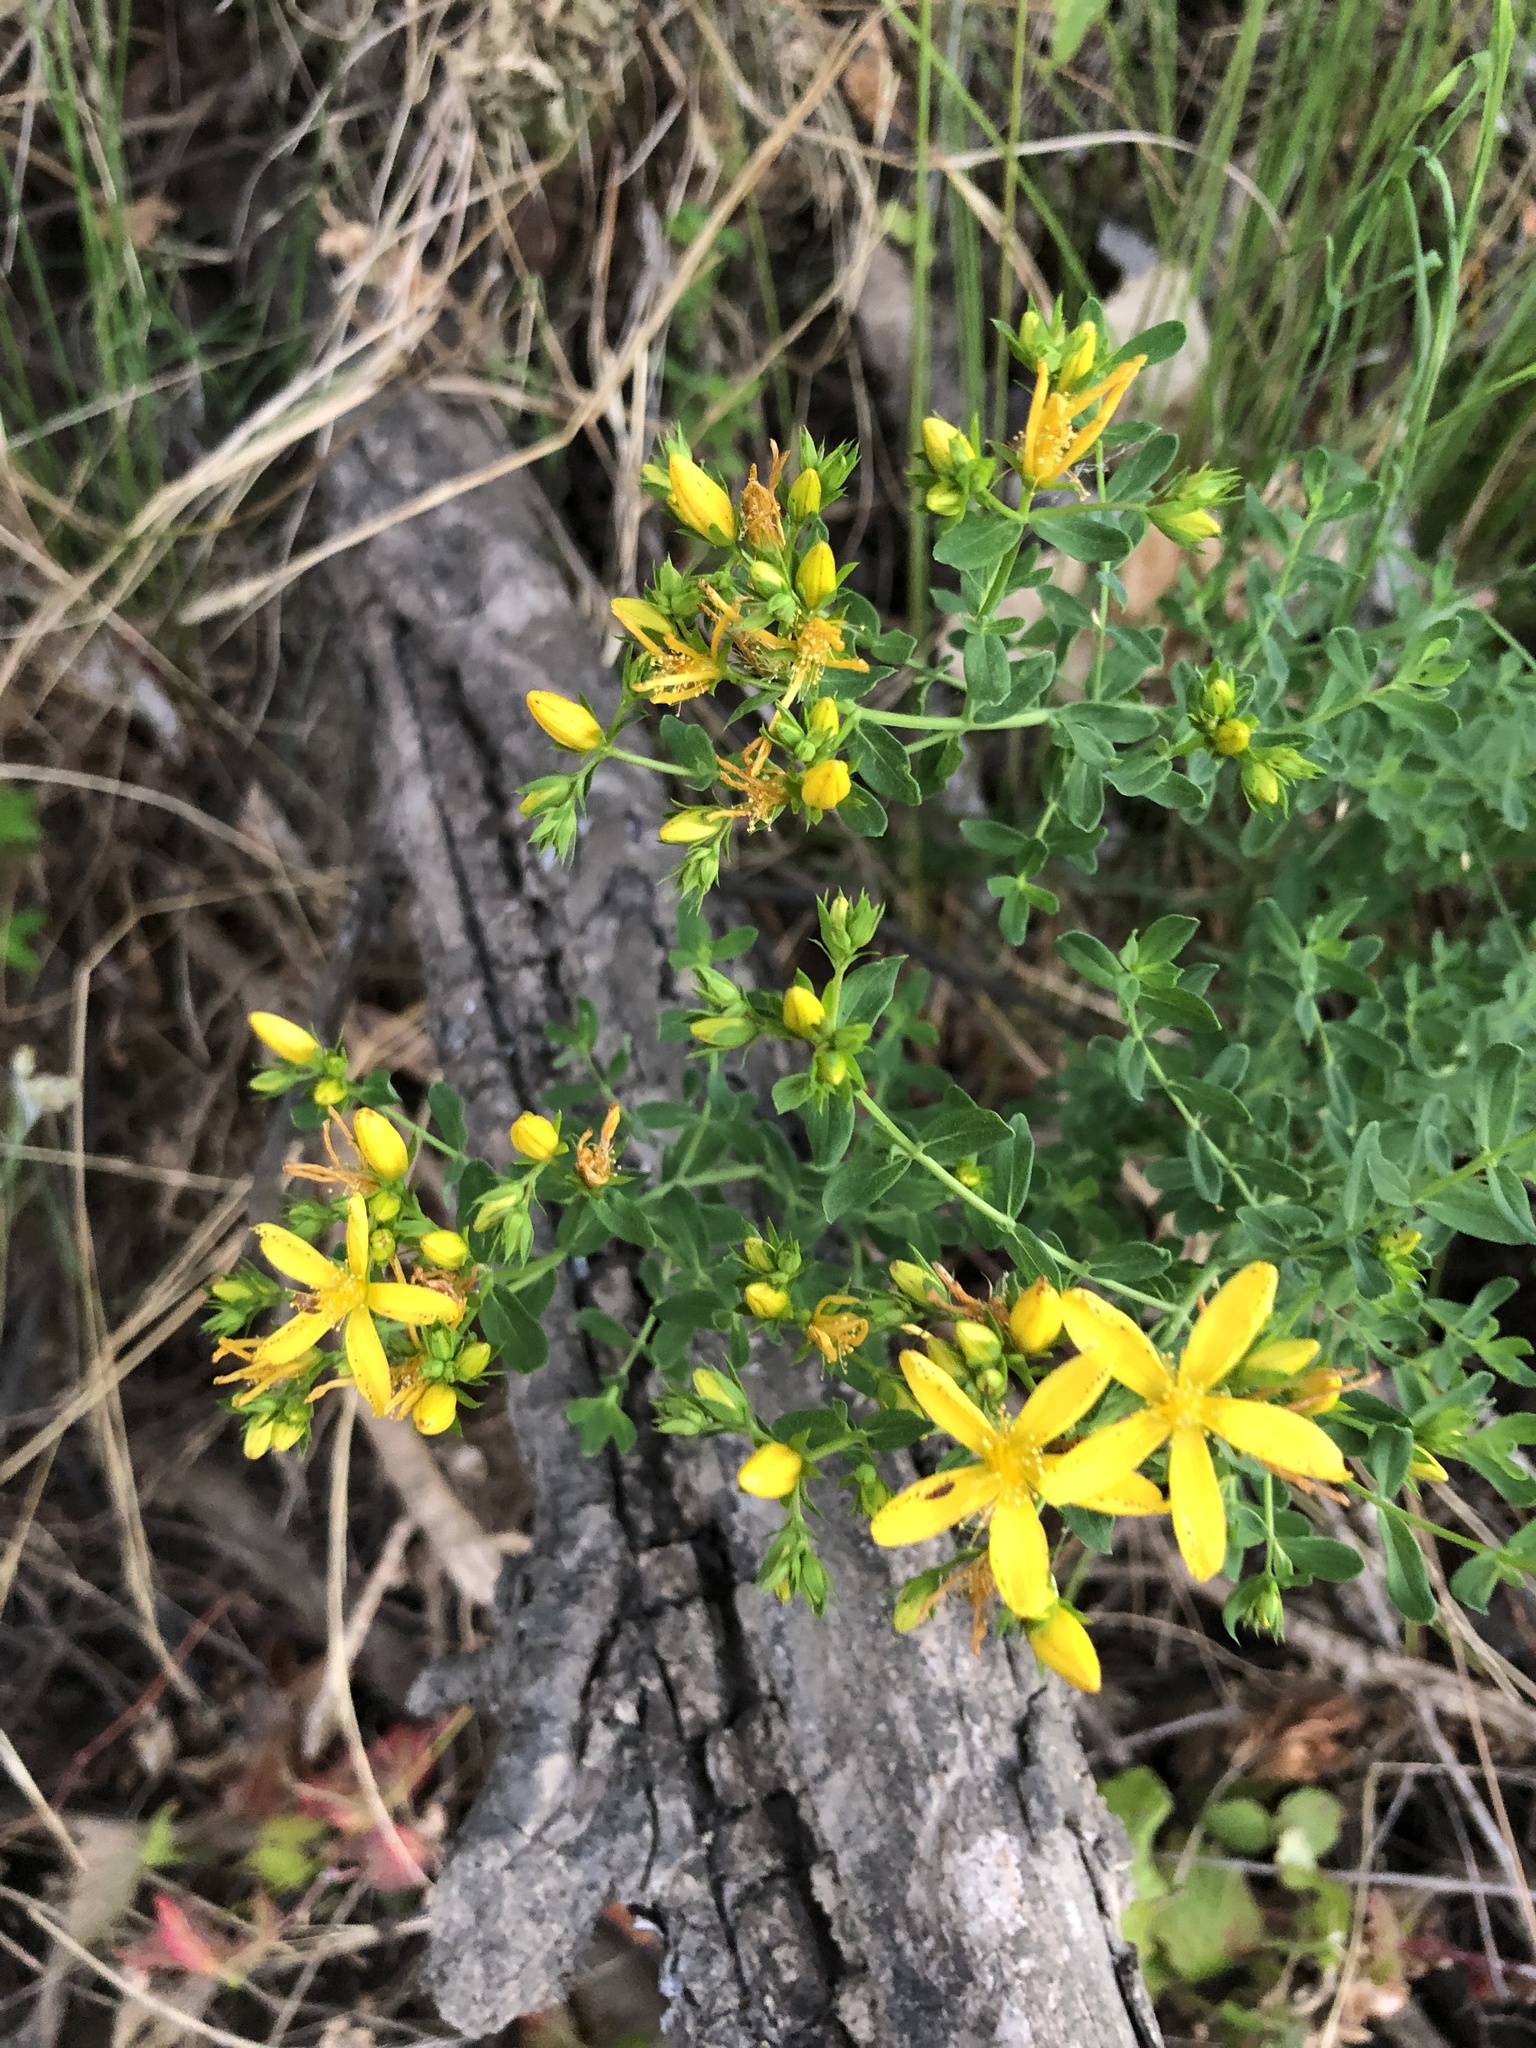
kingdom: Plantae
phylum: Tracheophyta
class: Magnoliopsida
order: Malpighiales
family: Hypericaceae
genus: Hypericum
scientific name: Hypericum perforatum
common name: Common st. johnswort
